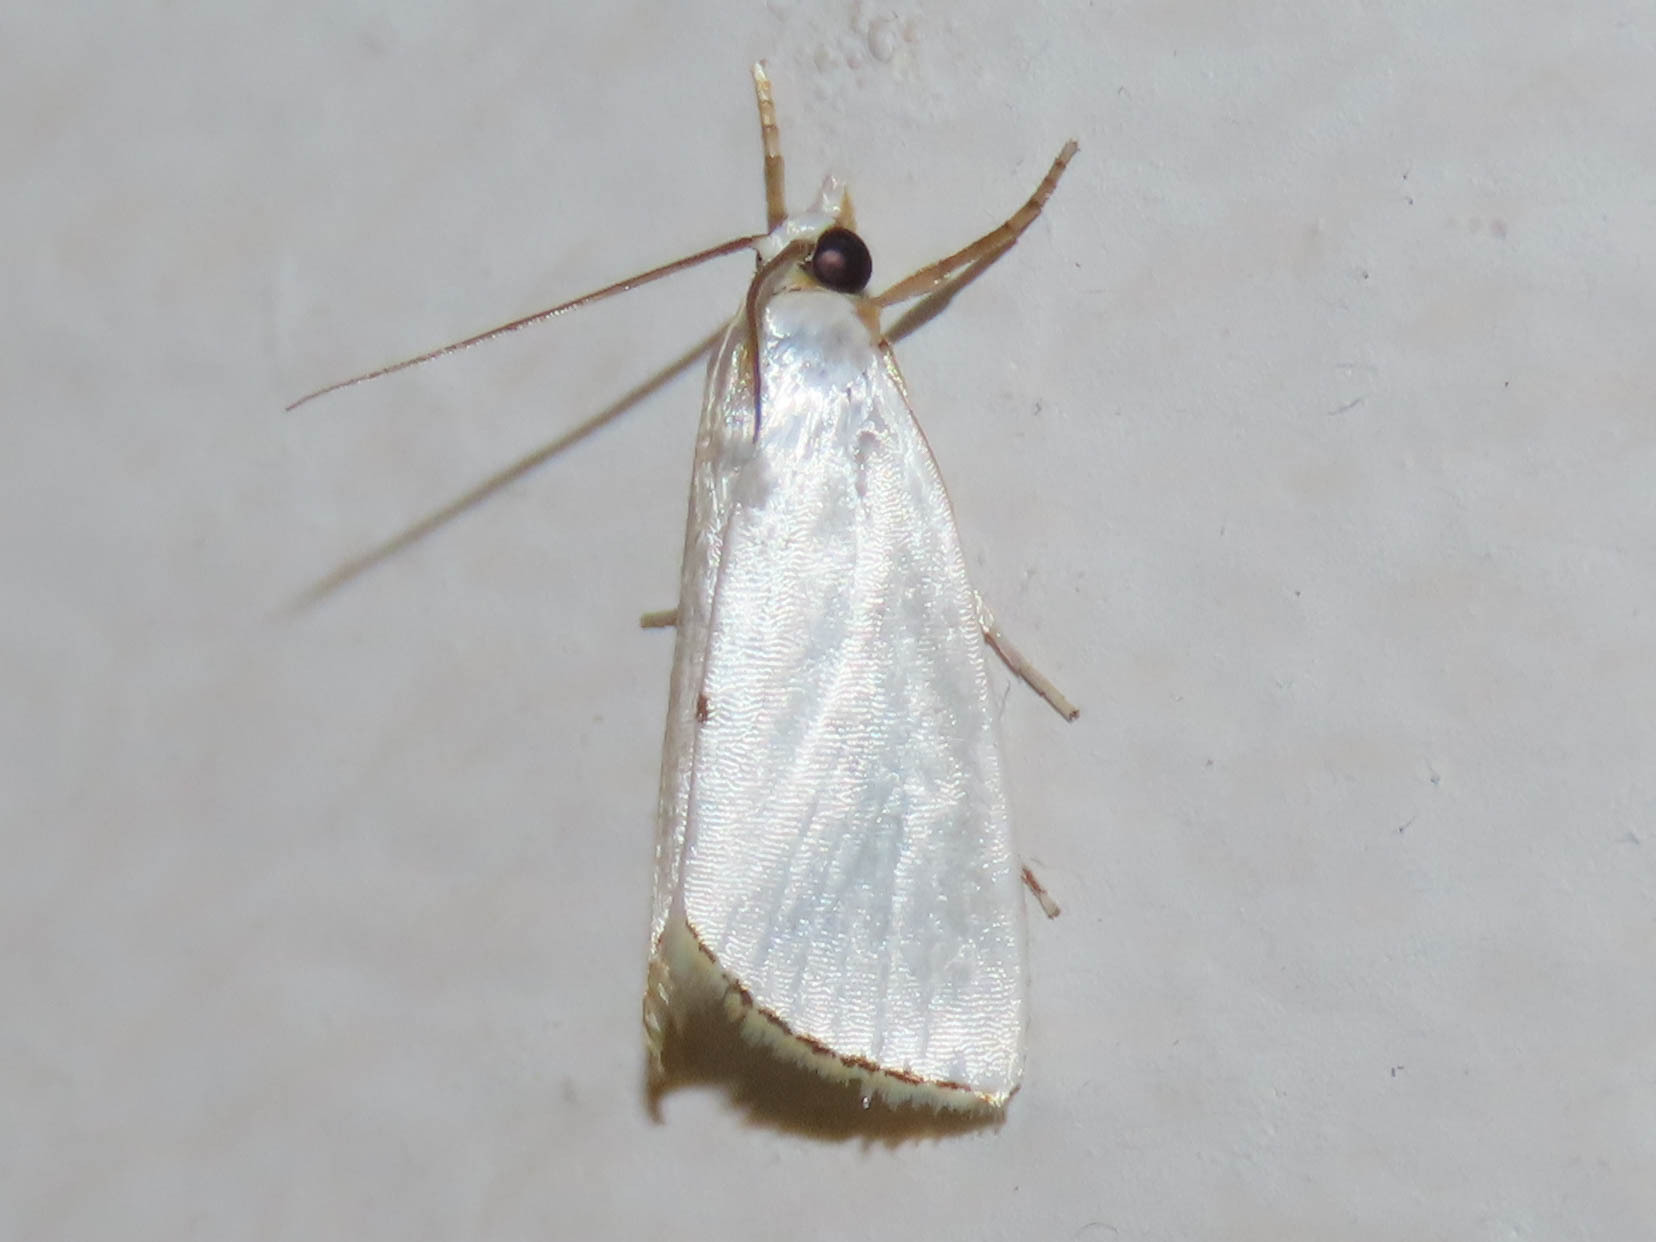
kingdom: Animalia
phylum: Arthropoda
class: Insecta
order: Lepidoptera
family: Crambidae
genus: Argyria
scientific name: Argyria nivalis
